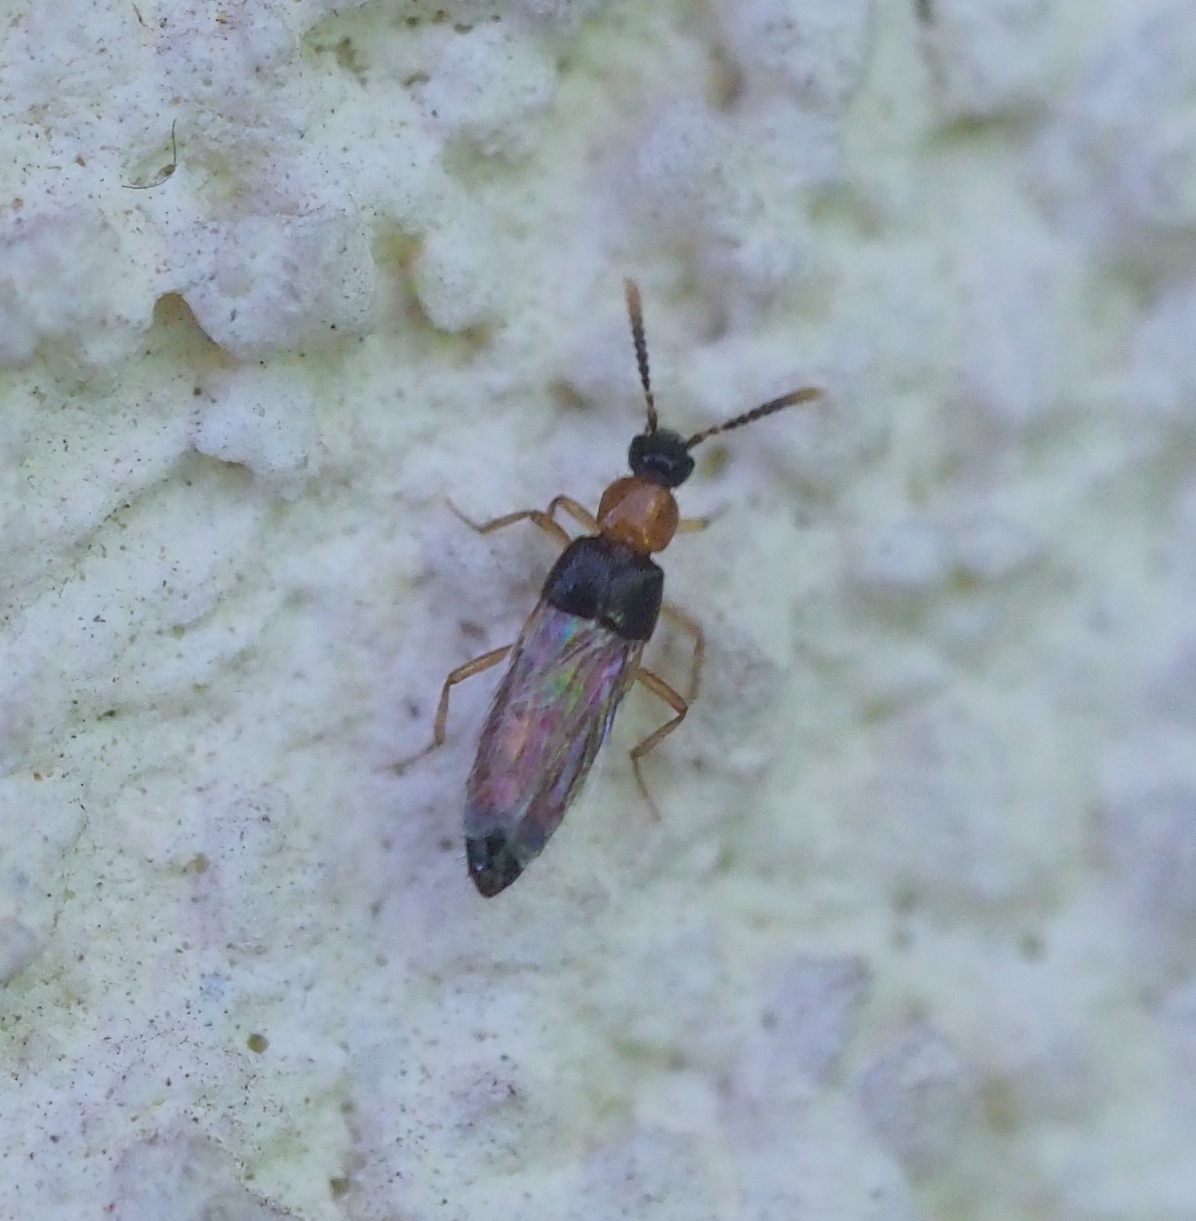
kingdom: Animalia
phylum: Arthropoda
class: Insecta
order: Coleoptera
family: Staphylinidae
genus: Zyras
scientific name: Zyras collaris
